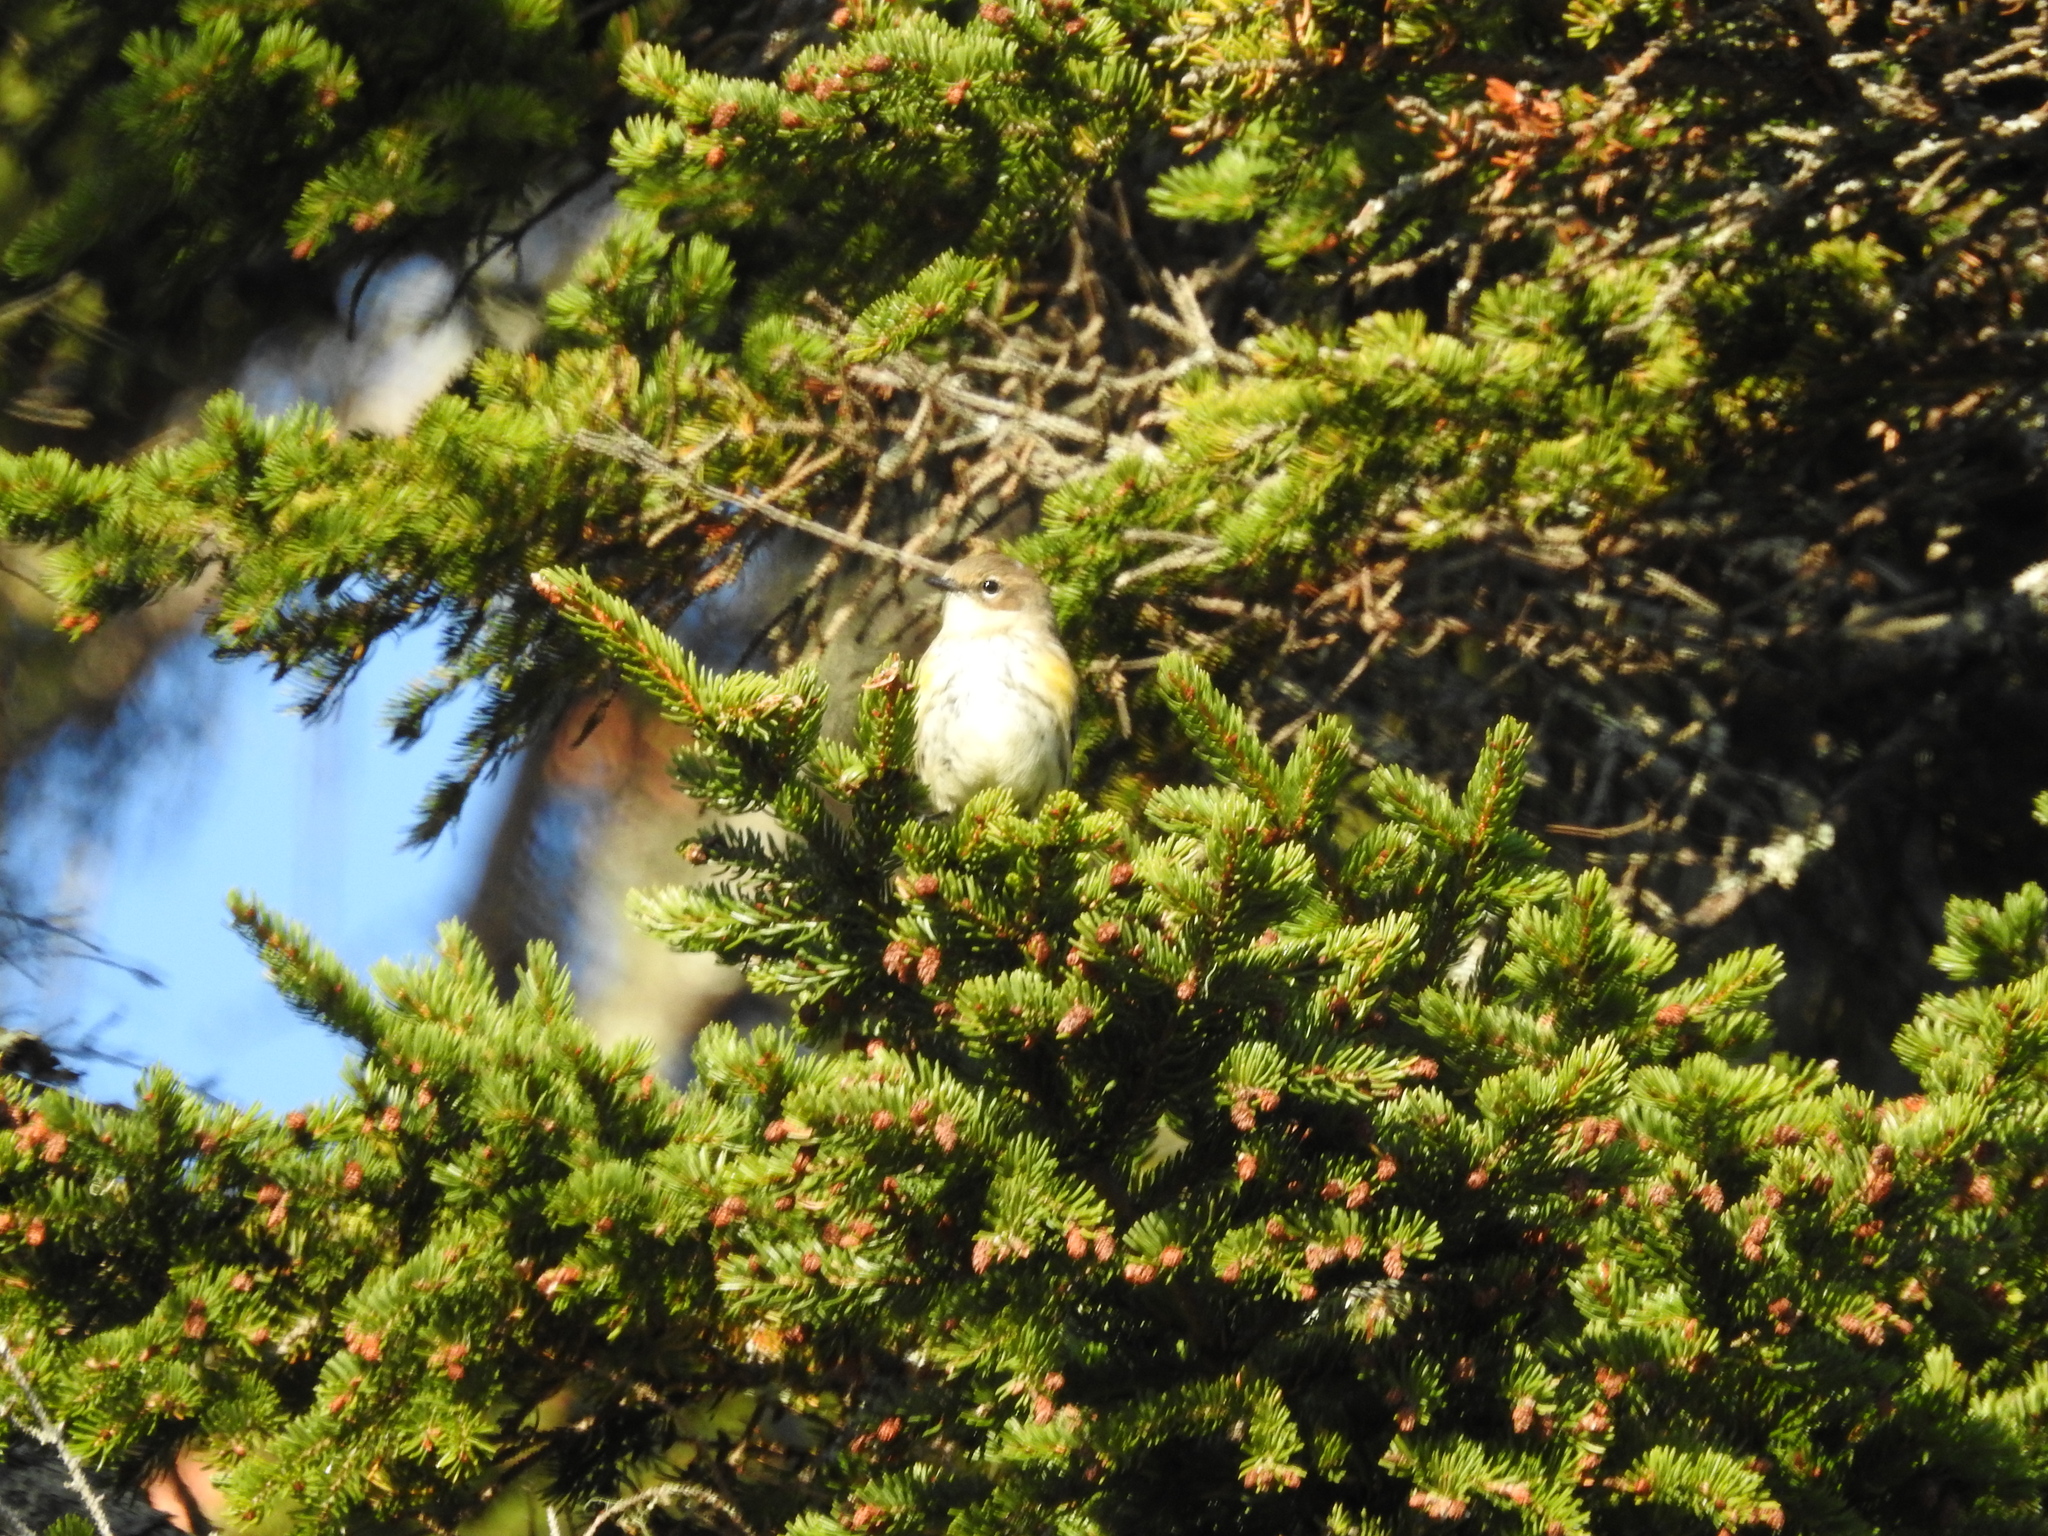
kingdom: Animalia
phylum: Chordata
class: Aves
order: Passeriformes
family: Parulidae
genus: Setophaga
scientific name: Setophaga coronata
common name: Myrtle warbler
